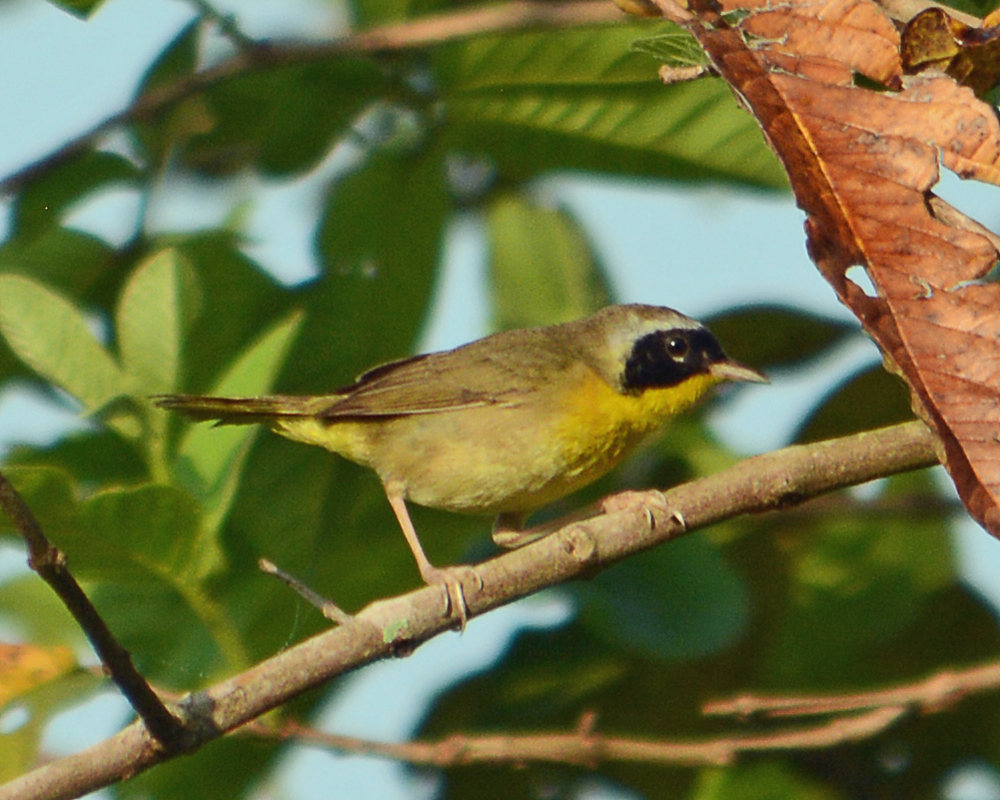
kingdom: Animalia
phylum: Chordata
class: Aves
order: Passeriformes
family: Parulidae
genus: Geothlypis
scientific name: Geothlypis trichas
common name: Common yellowthroat
